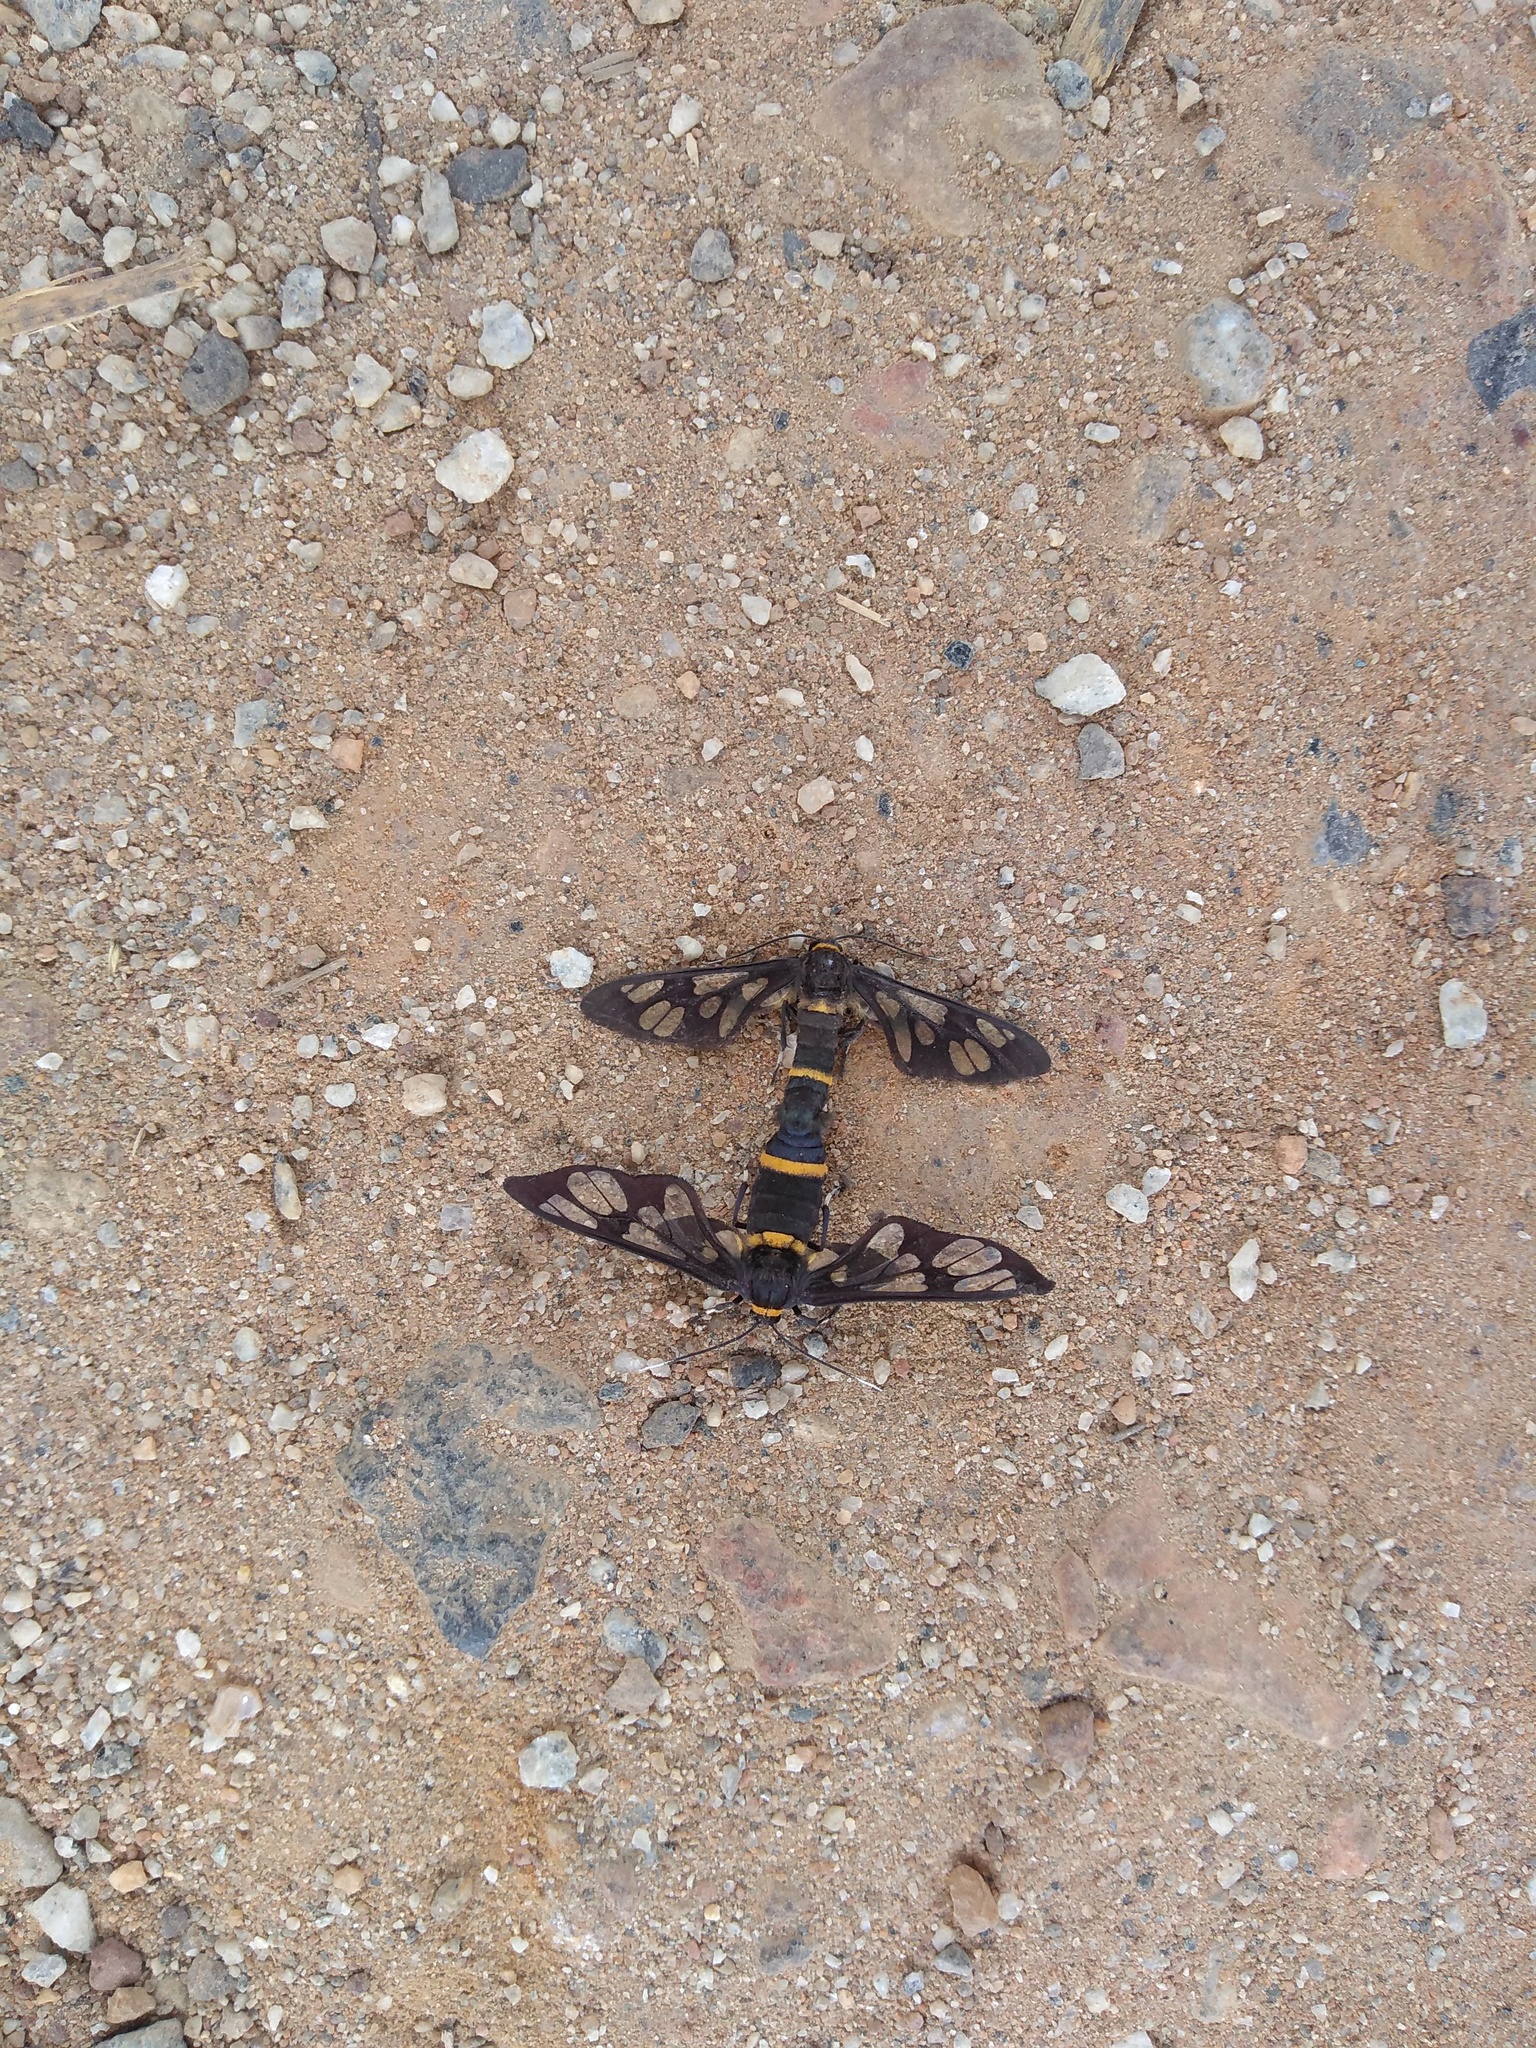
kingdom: Animalia
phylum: Arthropoda
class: Insecta
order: Lepidoptera
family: Erebidae
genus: Syntomoides
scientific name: Syntomoides imaon
